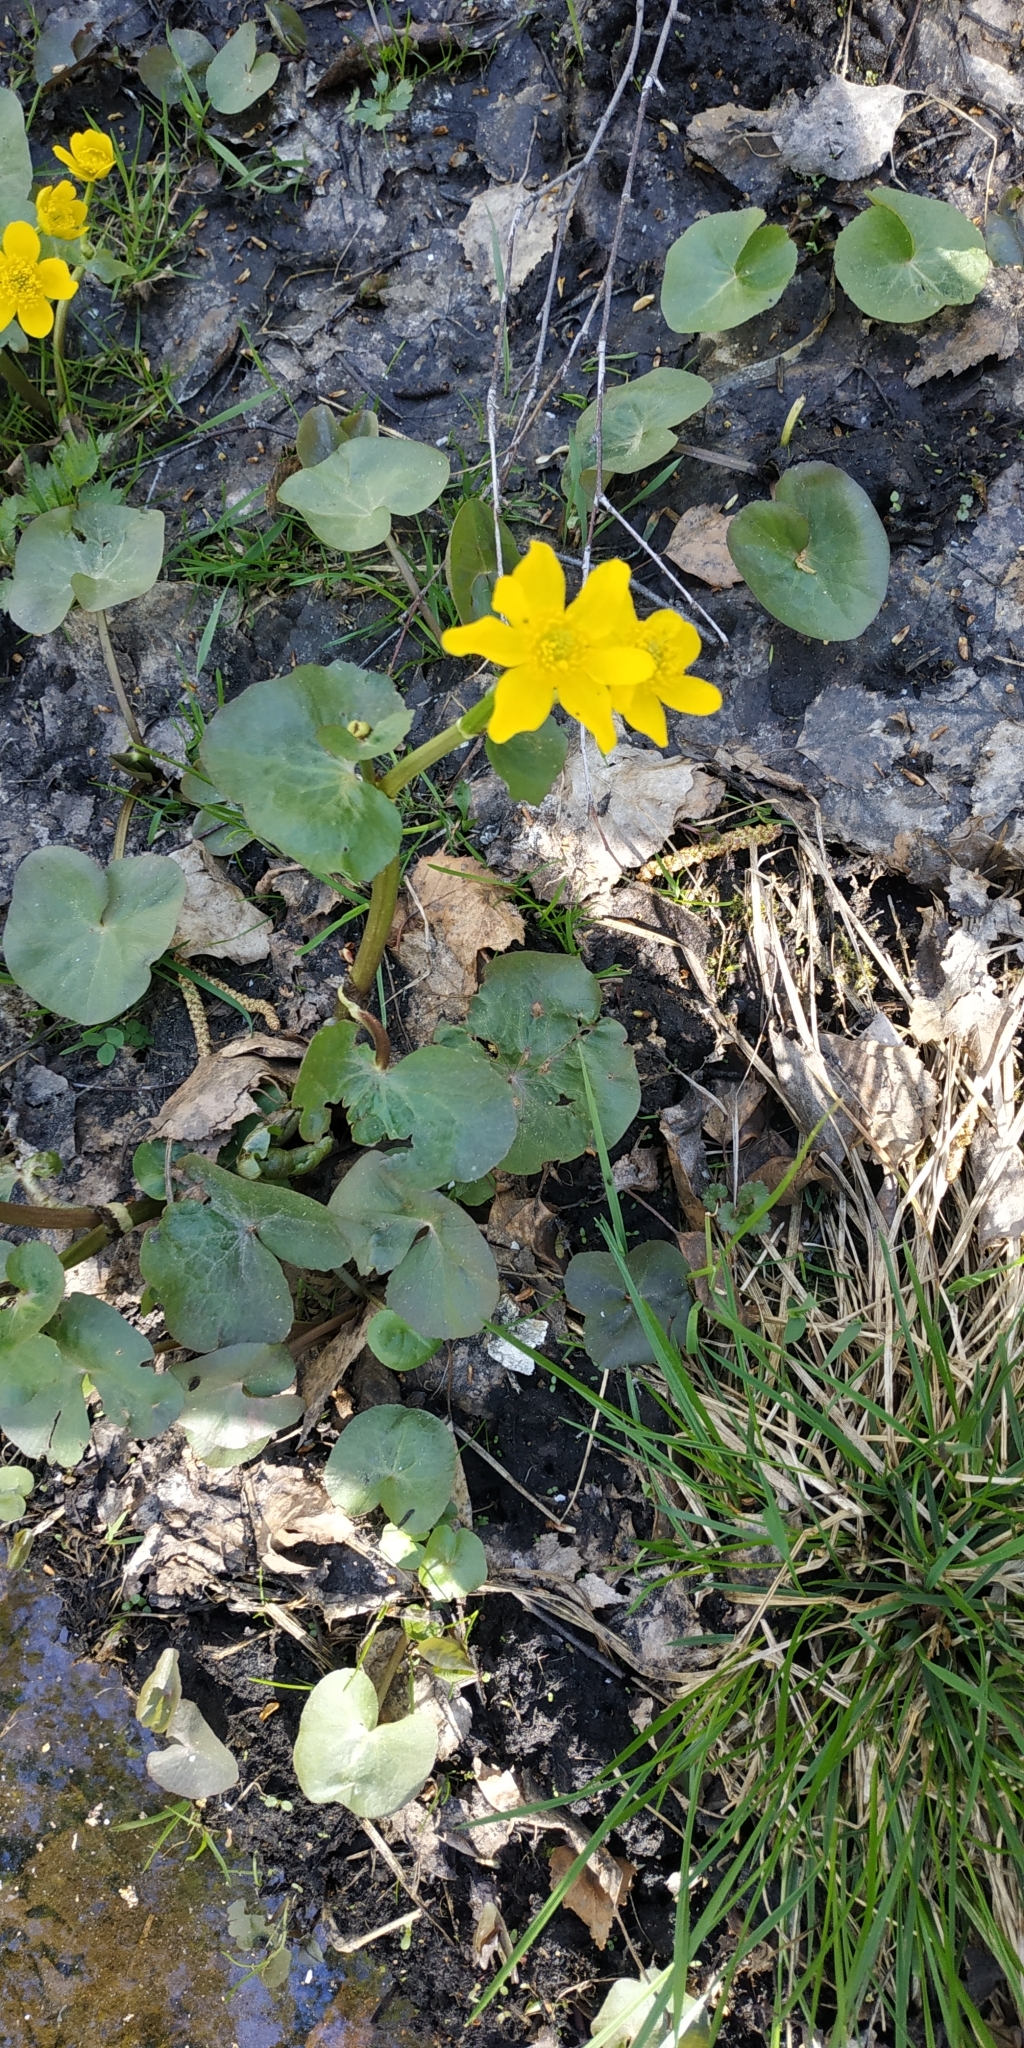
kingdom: Plantae
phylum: Tracheophyta
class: Magnoliopsida
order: Ranunculales
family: Ranunculaceae
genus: Caltha
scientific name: Caltha palustris
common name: Marsh marigold
